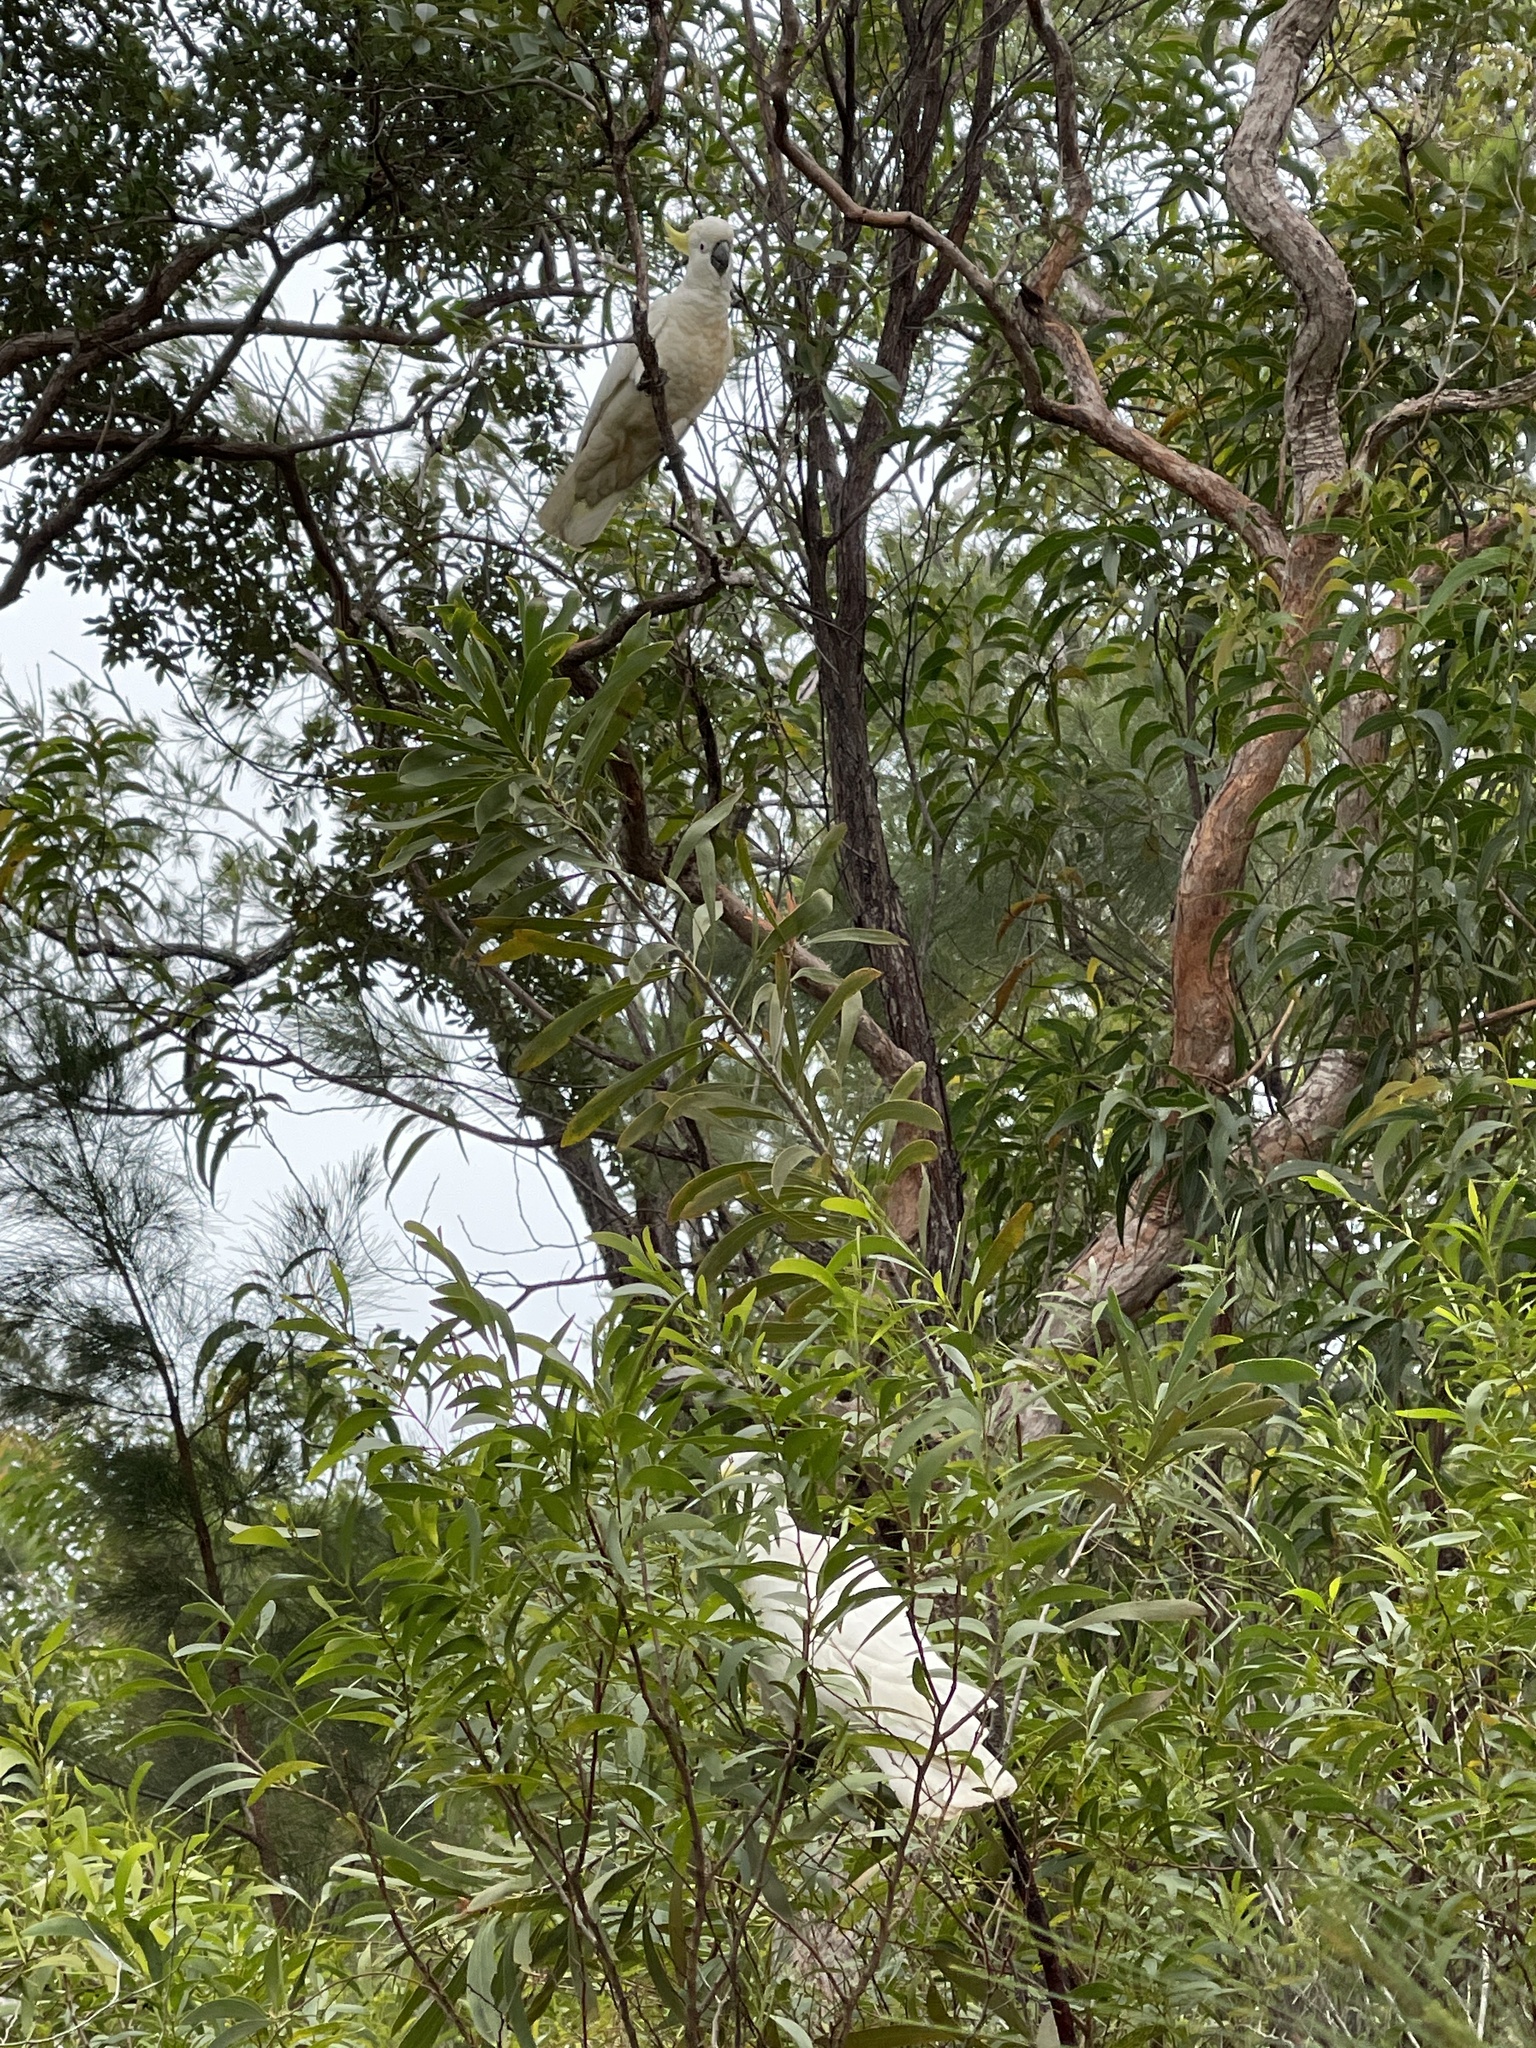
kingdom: Animalia
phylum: Chordata
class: Aves
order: Psittaciformes
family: Psittacidae
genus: Cacatua
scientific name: Cacatua galerita
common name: Sulphur-crested cockatoo
